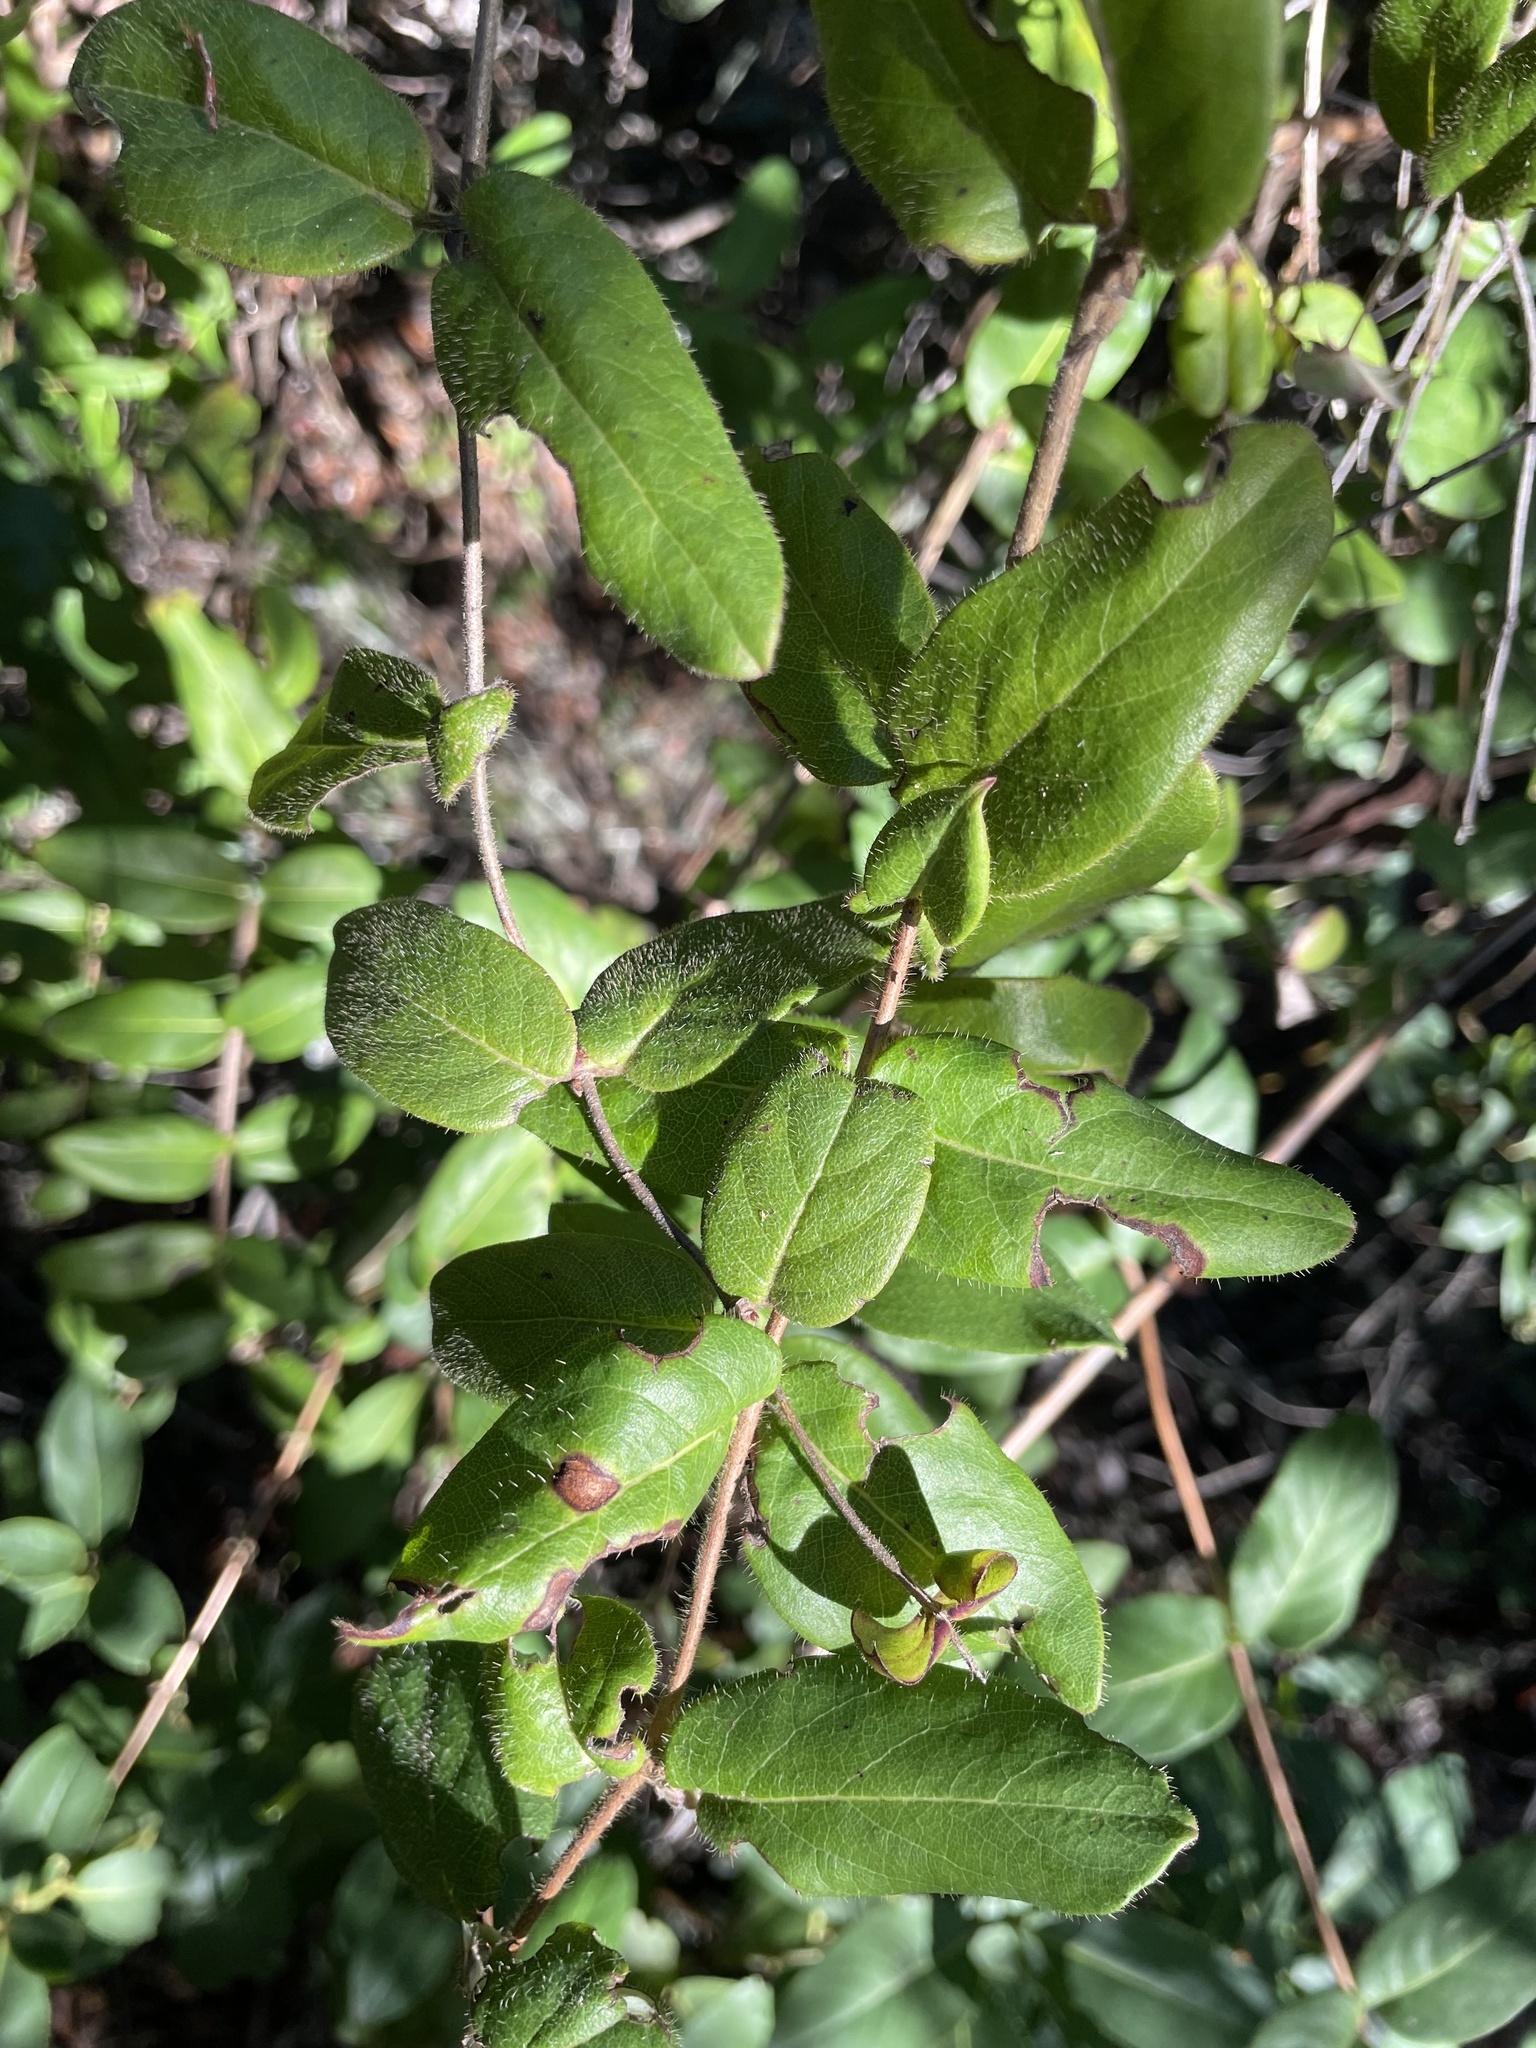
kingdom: Plantae
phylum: Tracheophyta
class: Magnoliopsida
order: Dipsacales
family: Caprifoliaceae
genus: Lonicera
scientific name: Lonicera hispidula
